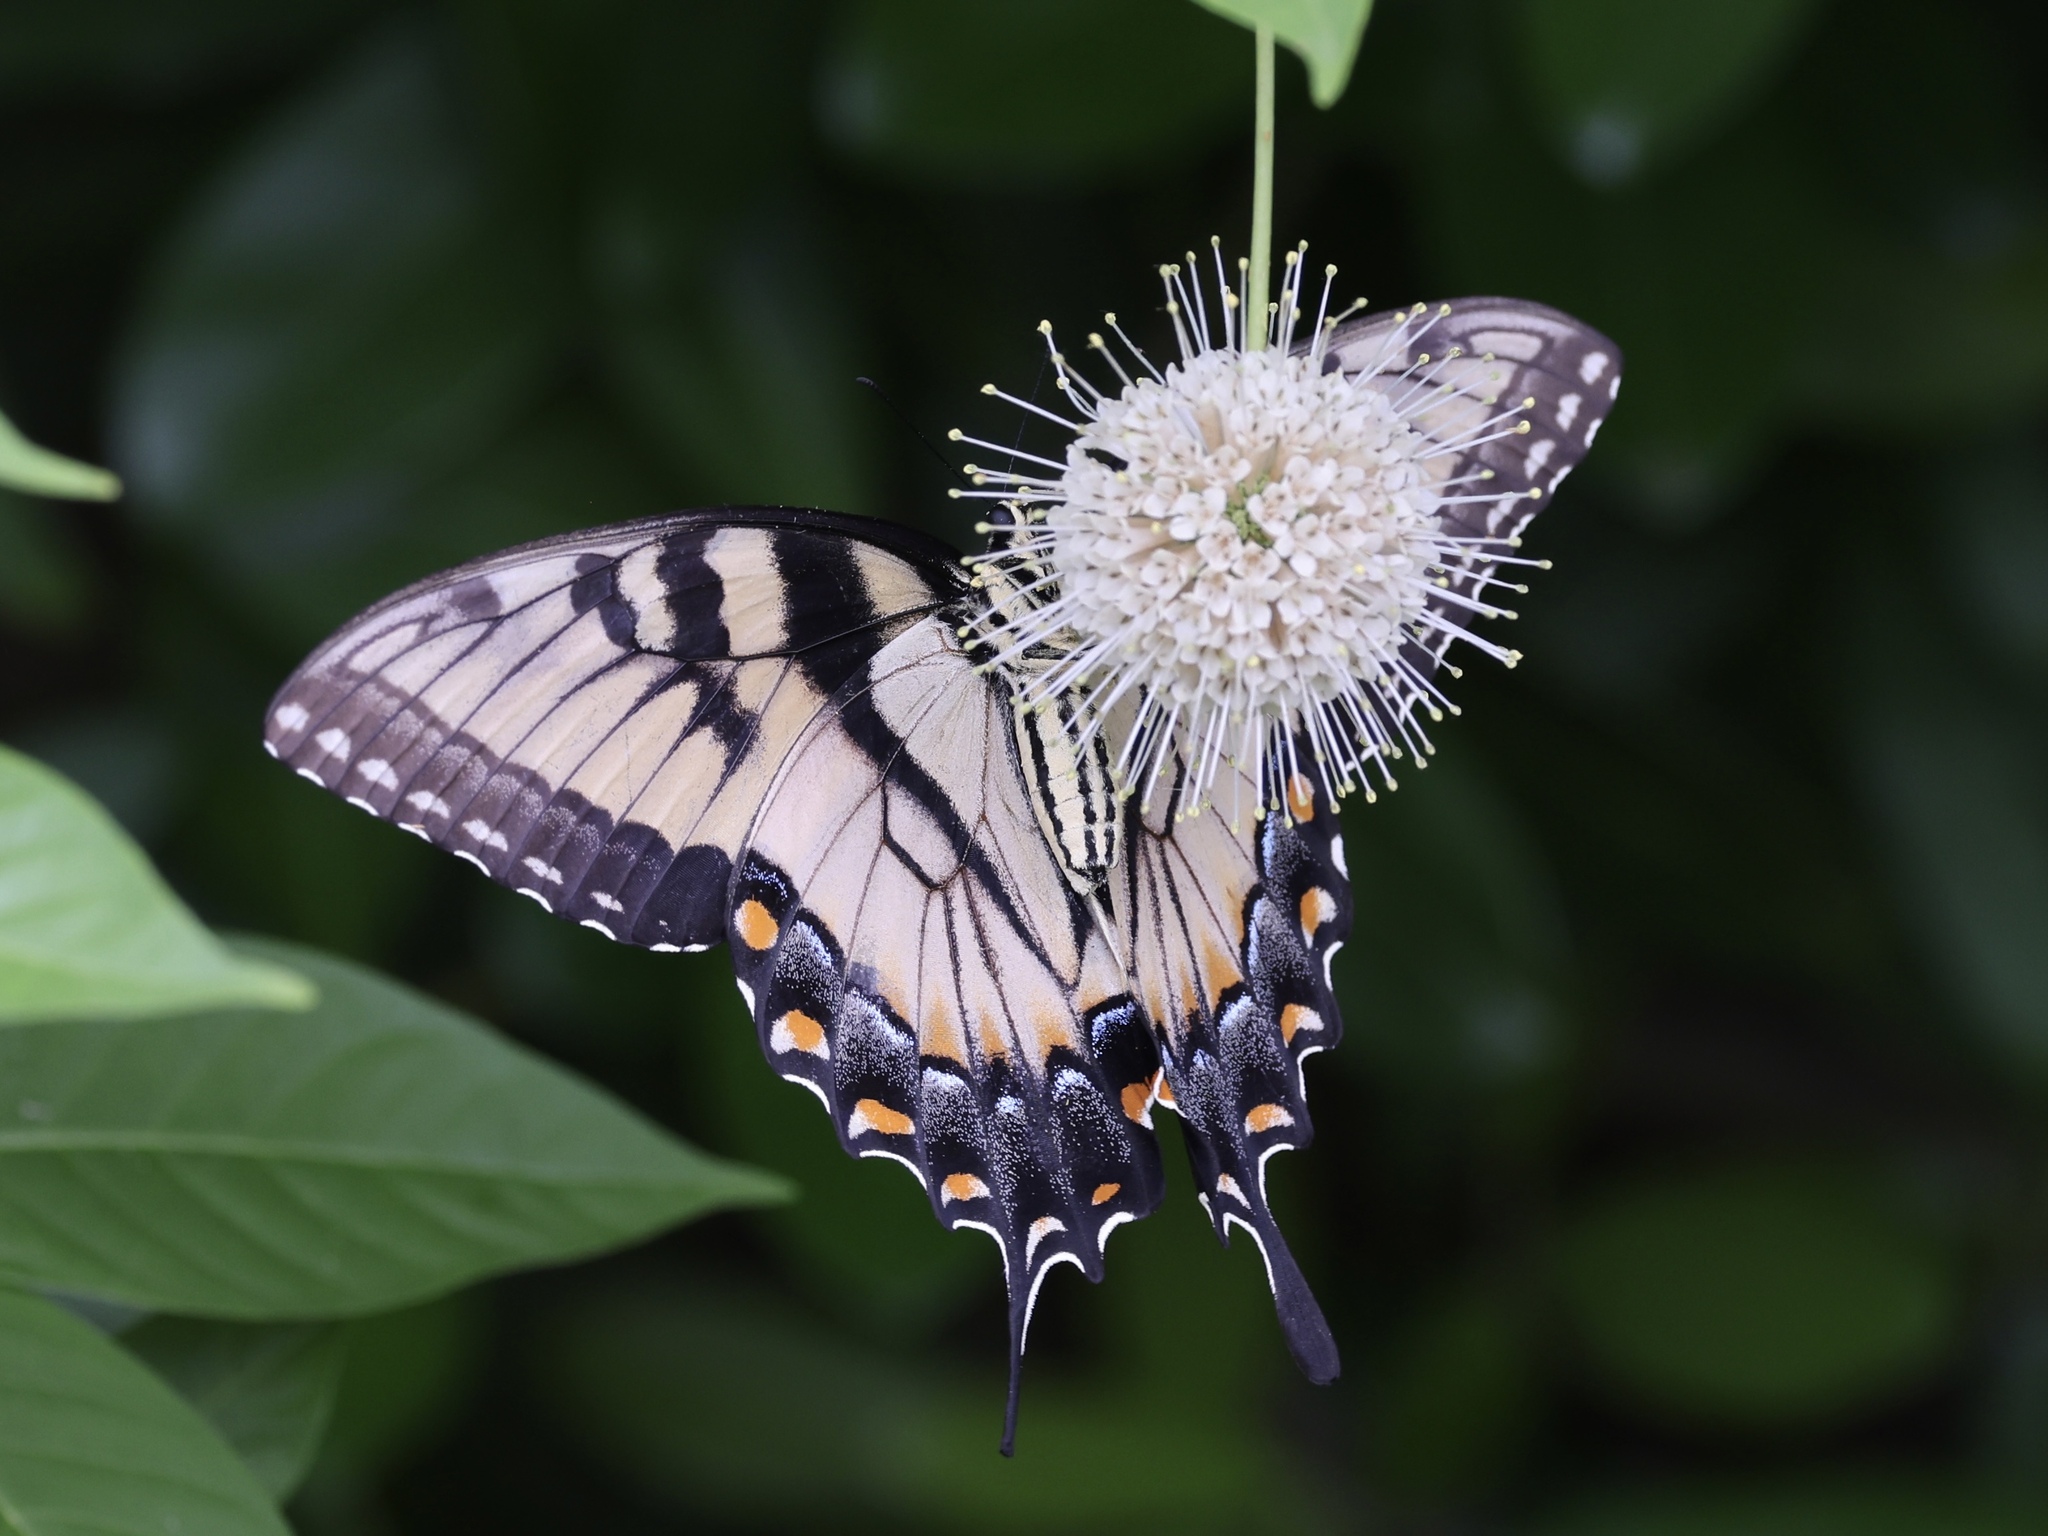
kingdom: Animalia
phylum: Arthropoda
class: Insecta
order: Lepidoptera
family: Papilionidae
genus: Papilio
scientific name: Papilio glaucus
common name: Tiger swallowtail
